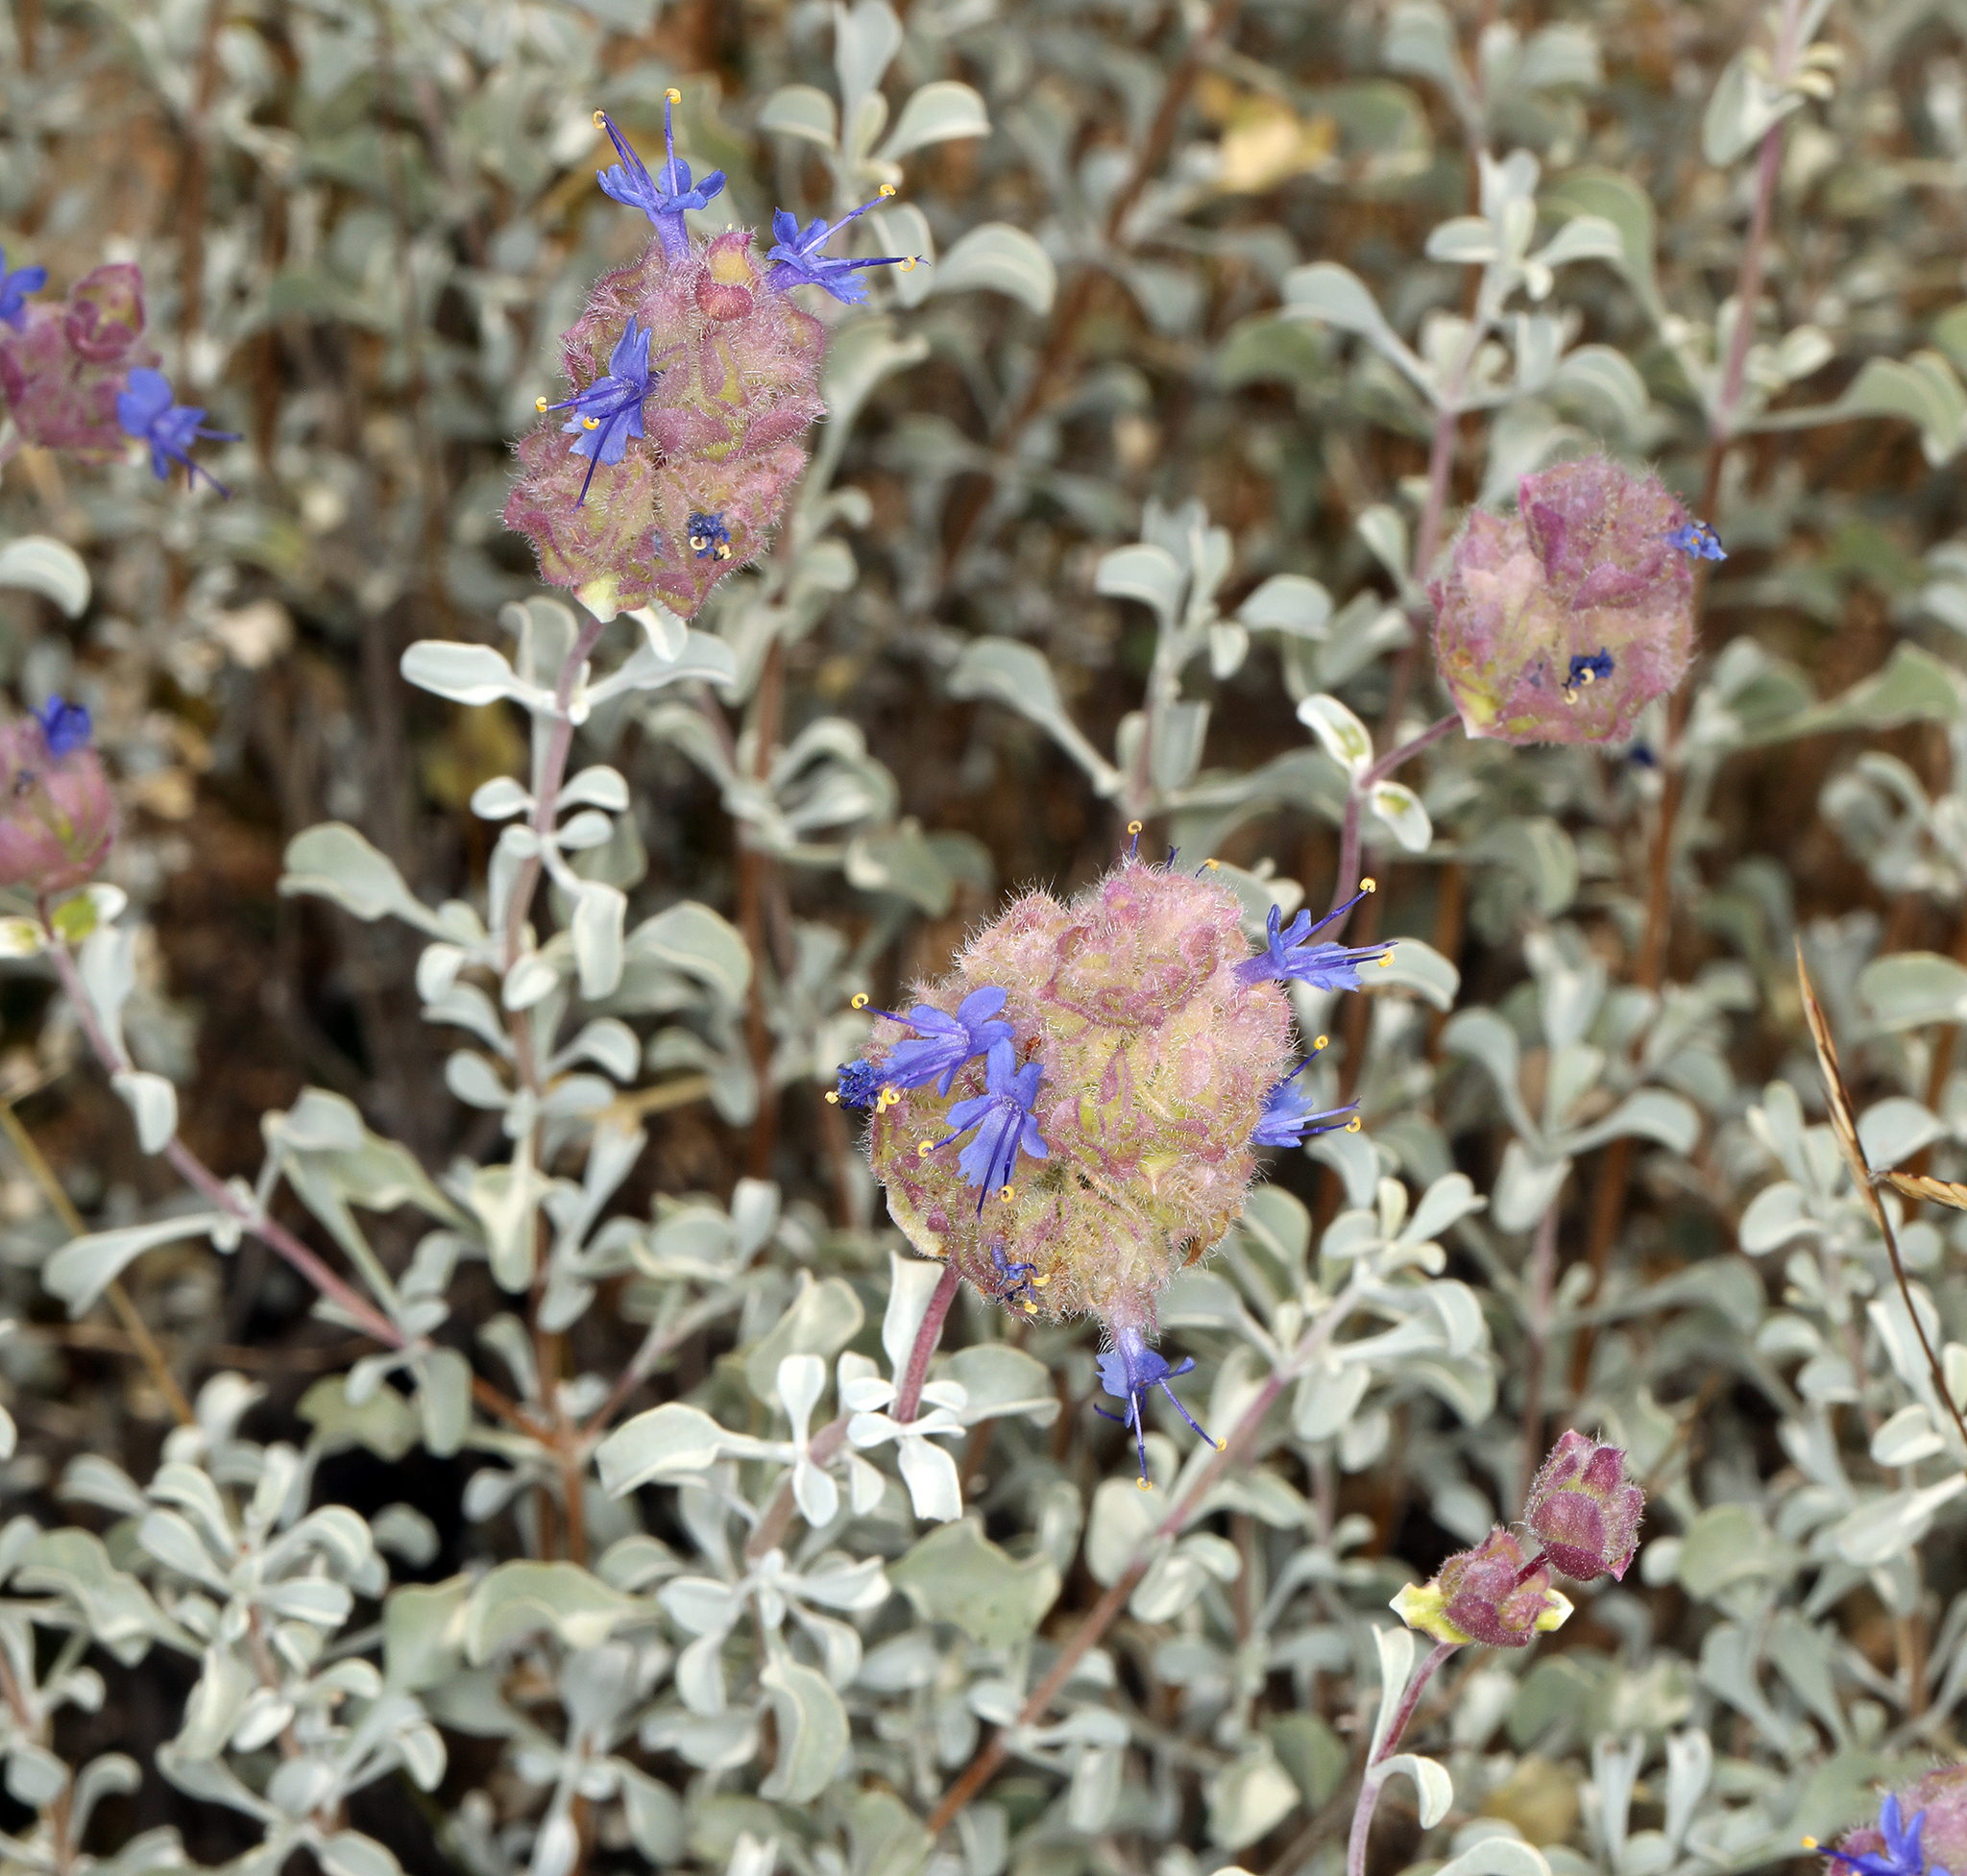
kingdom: Plantae
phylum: Tracheophyta
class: Magnoliopsida
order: Lamiales
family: Lamiaceae
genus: Salvia
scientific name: Salvia dorrii
